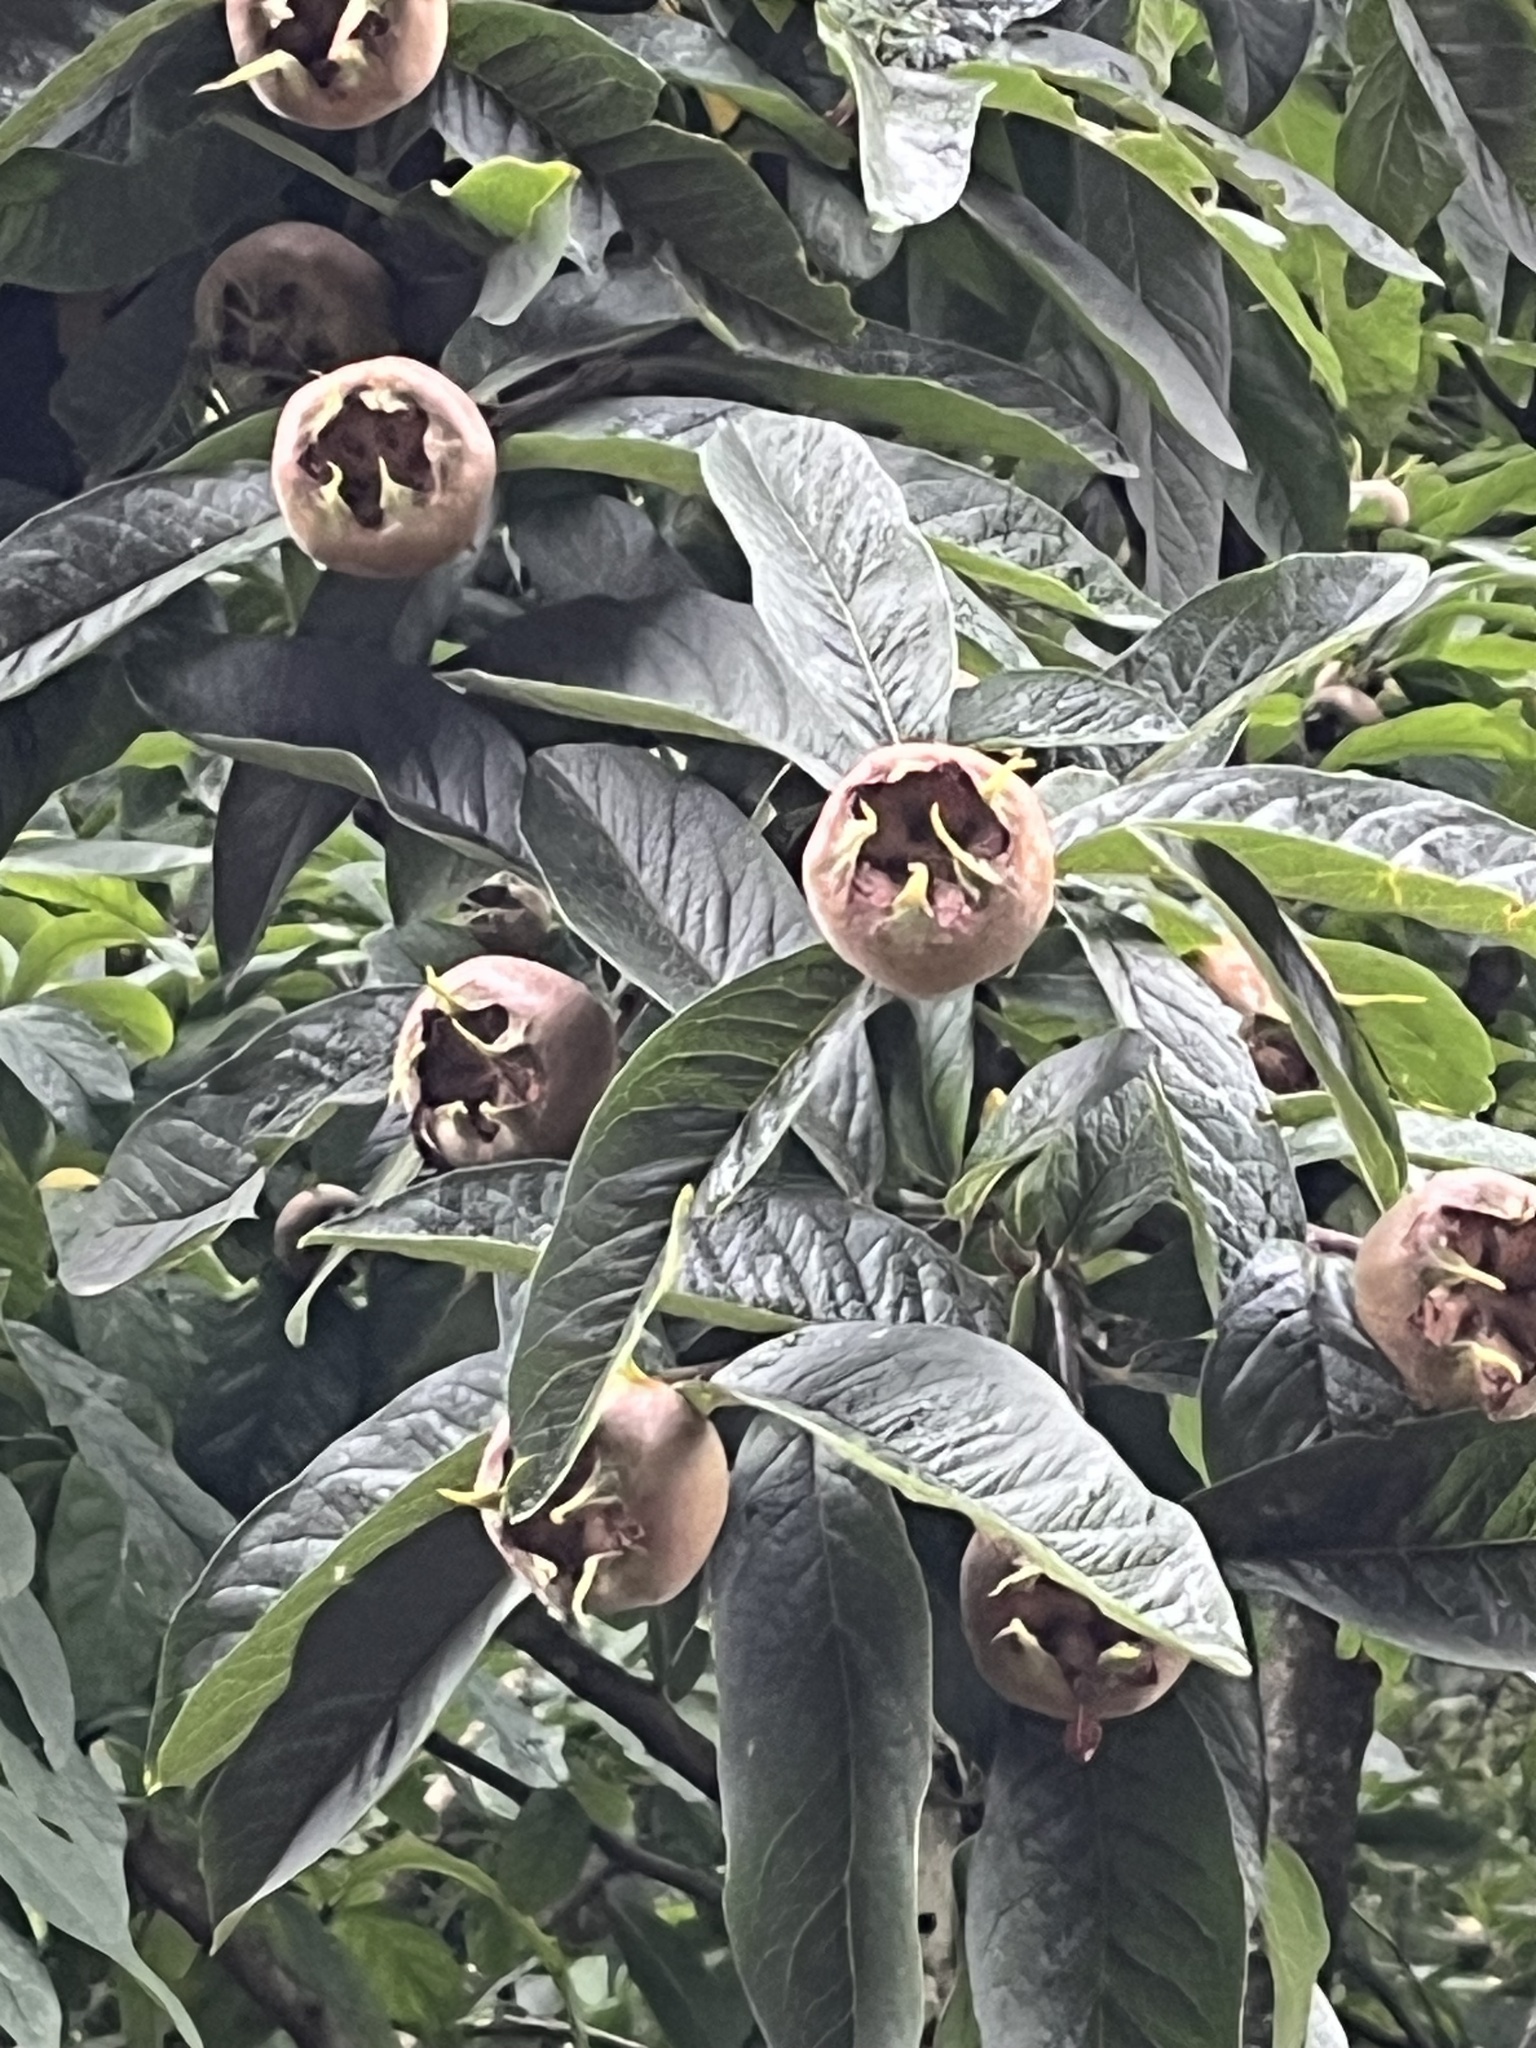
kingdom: Plantae
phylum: Tracheophyta
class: Magnoliopsida
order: Rosales
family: Rosaceae
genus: Mespilus
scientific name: Mespilus germanica
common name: Medlar
